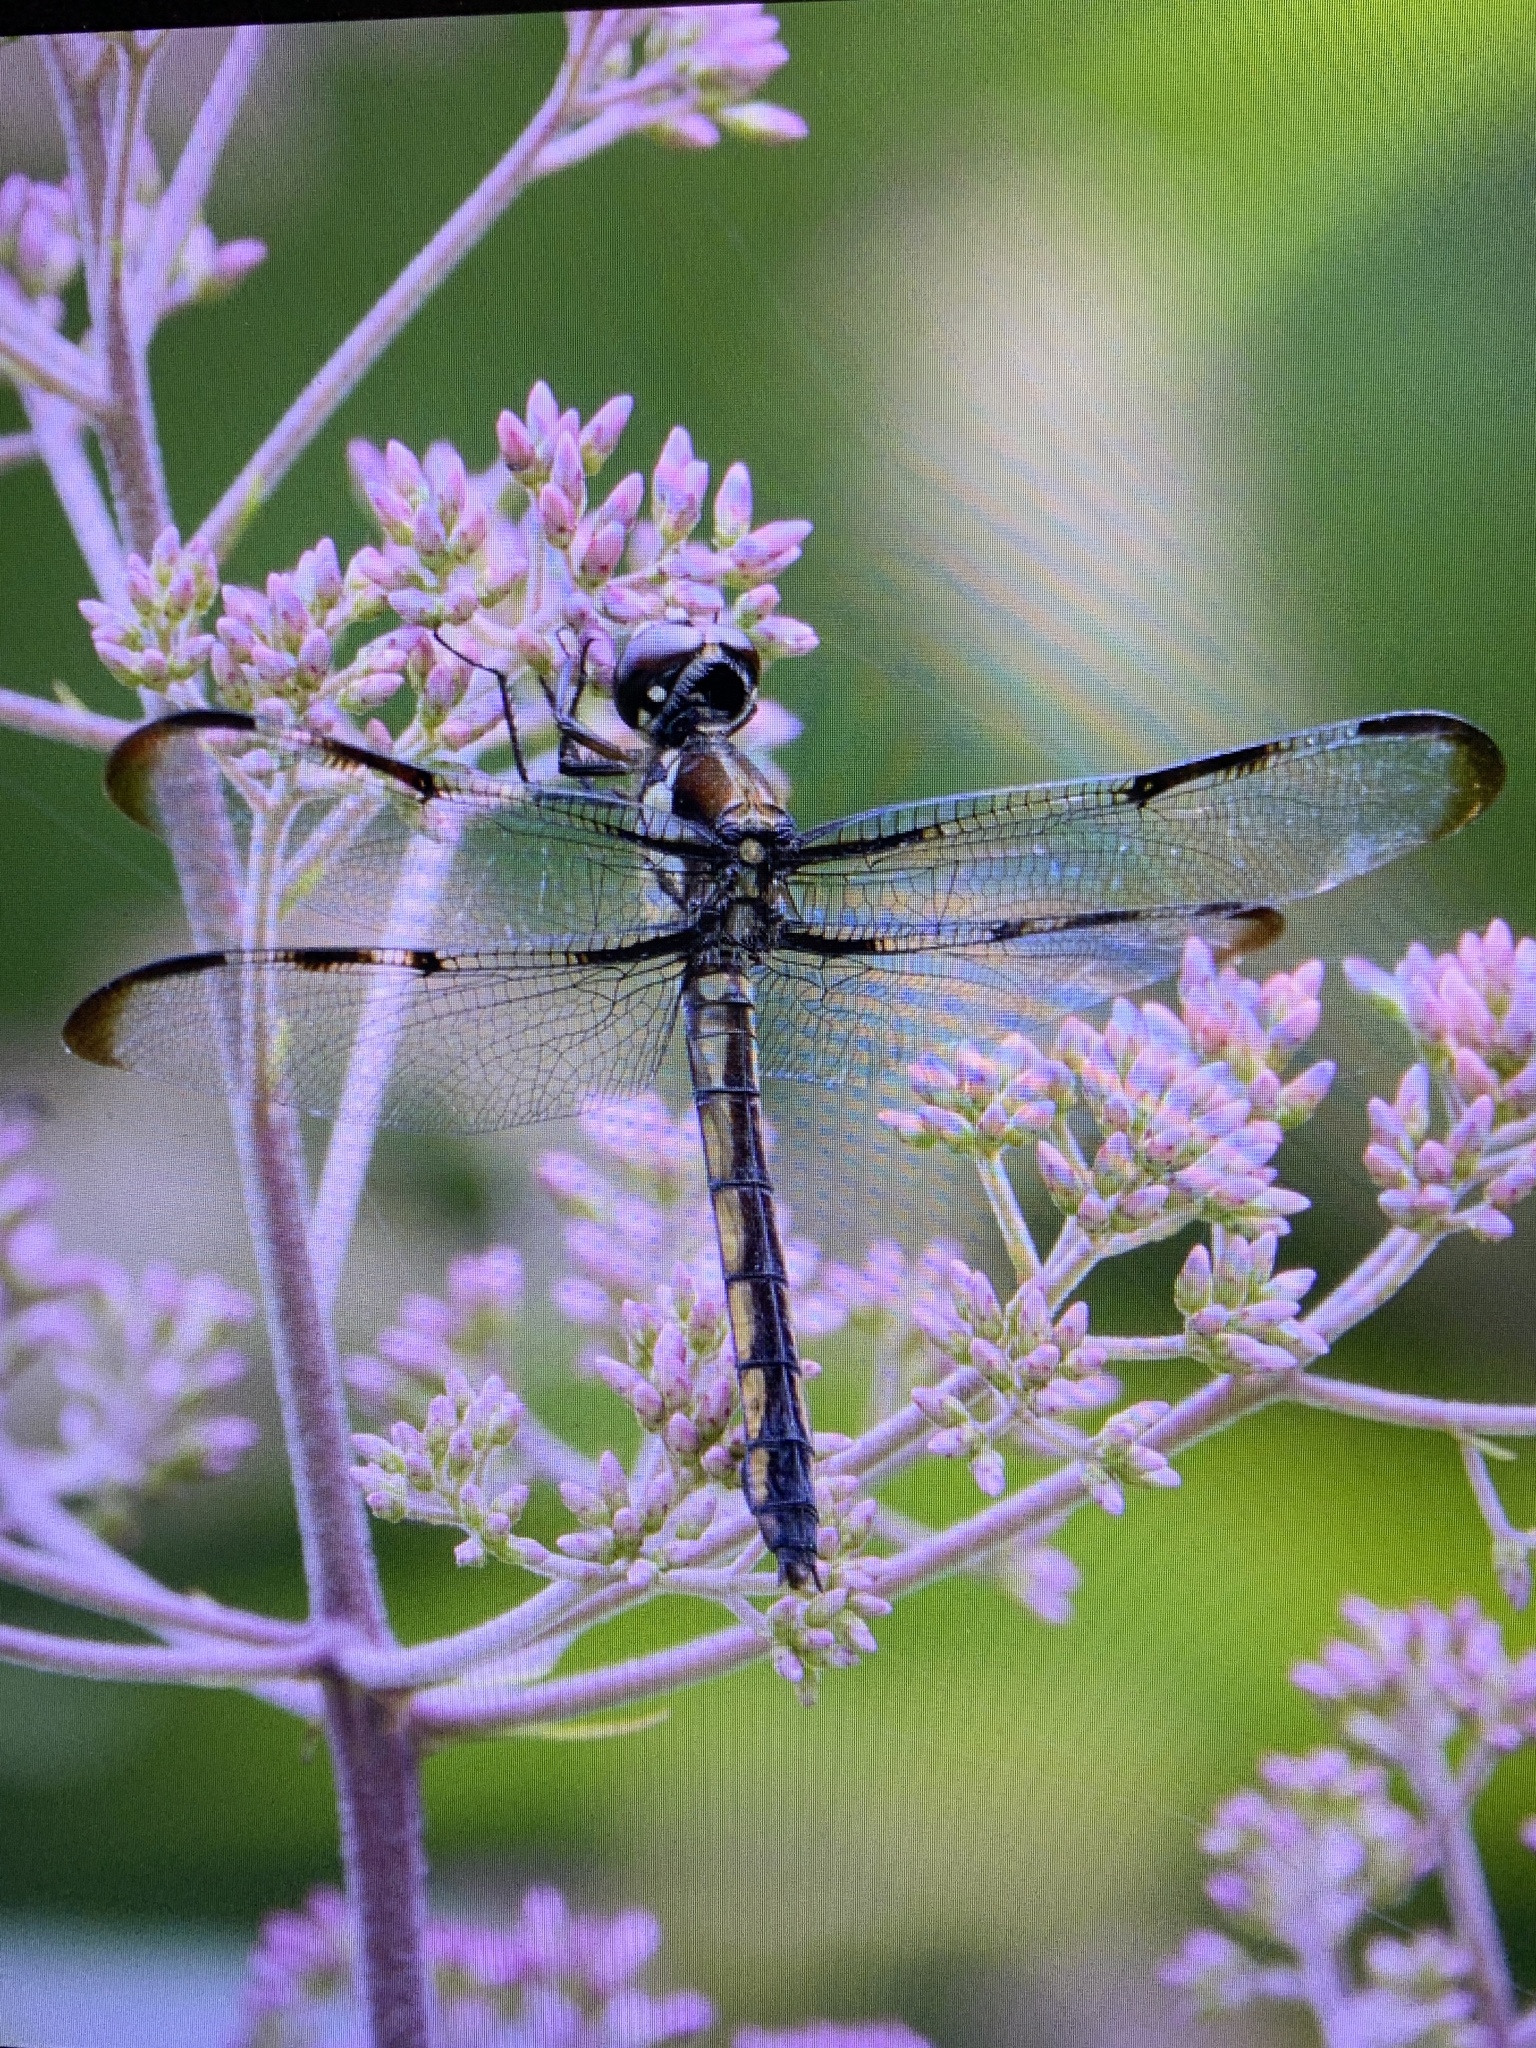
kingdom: Animalia
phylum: Arthropoda
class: Insecta
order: Odonata
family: Libellulidae
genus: Libellula
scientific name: Libellula axilena
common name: Bar-winged skimmer
